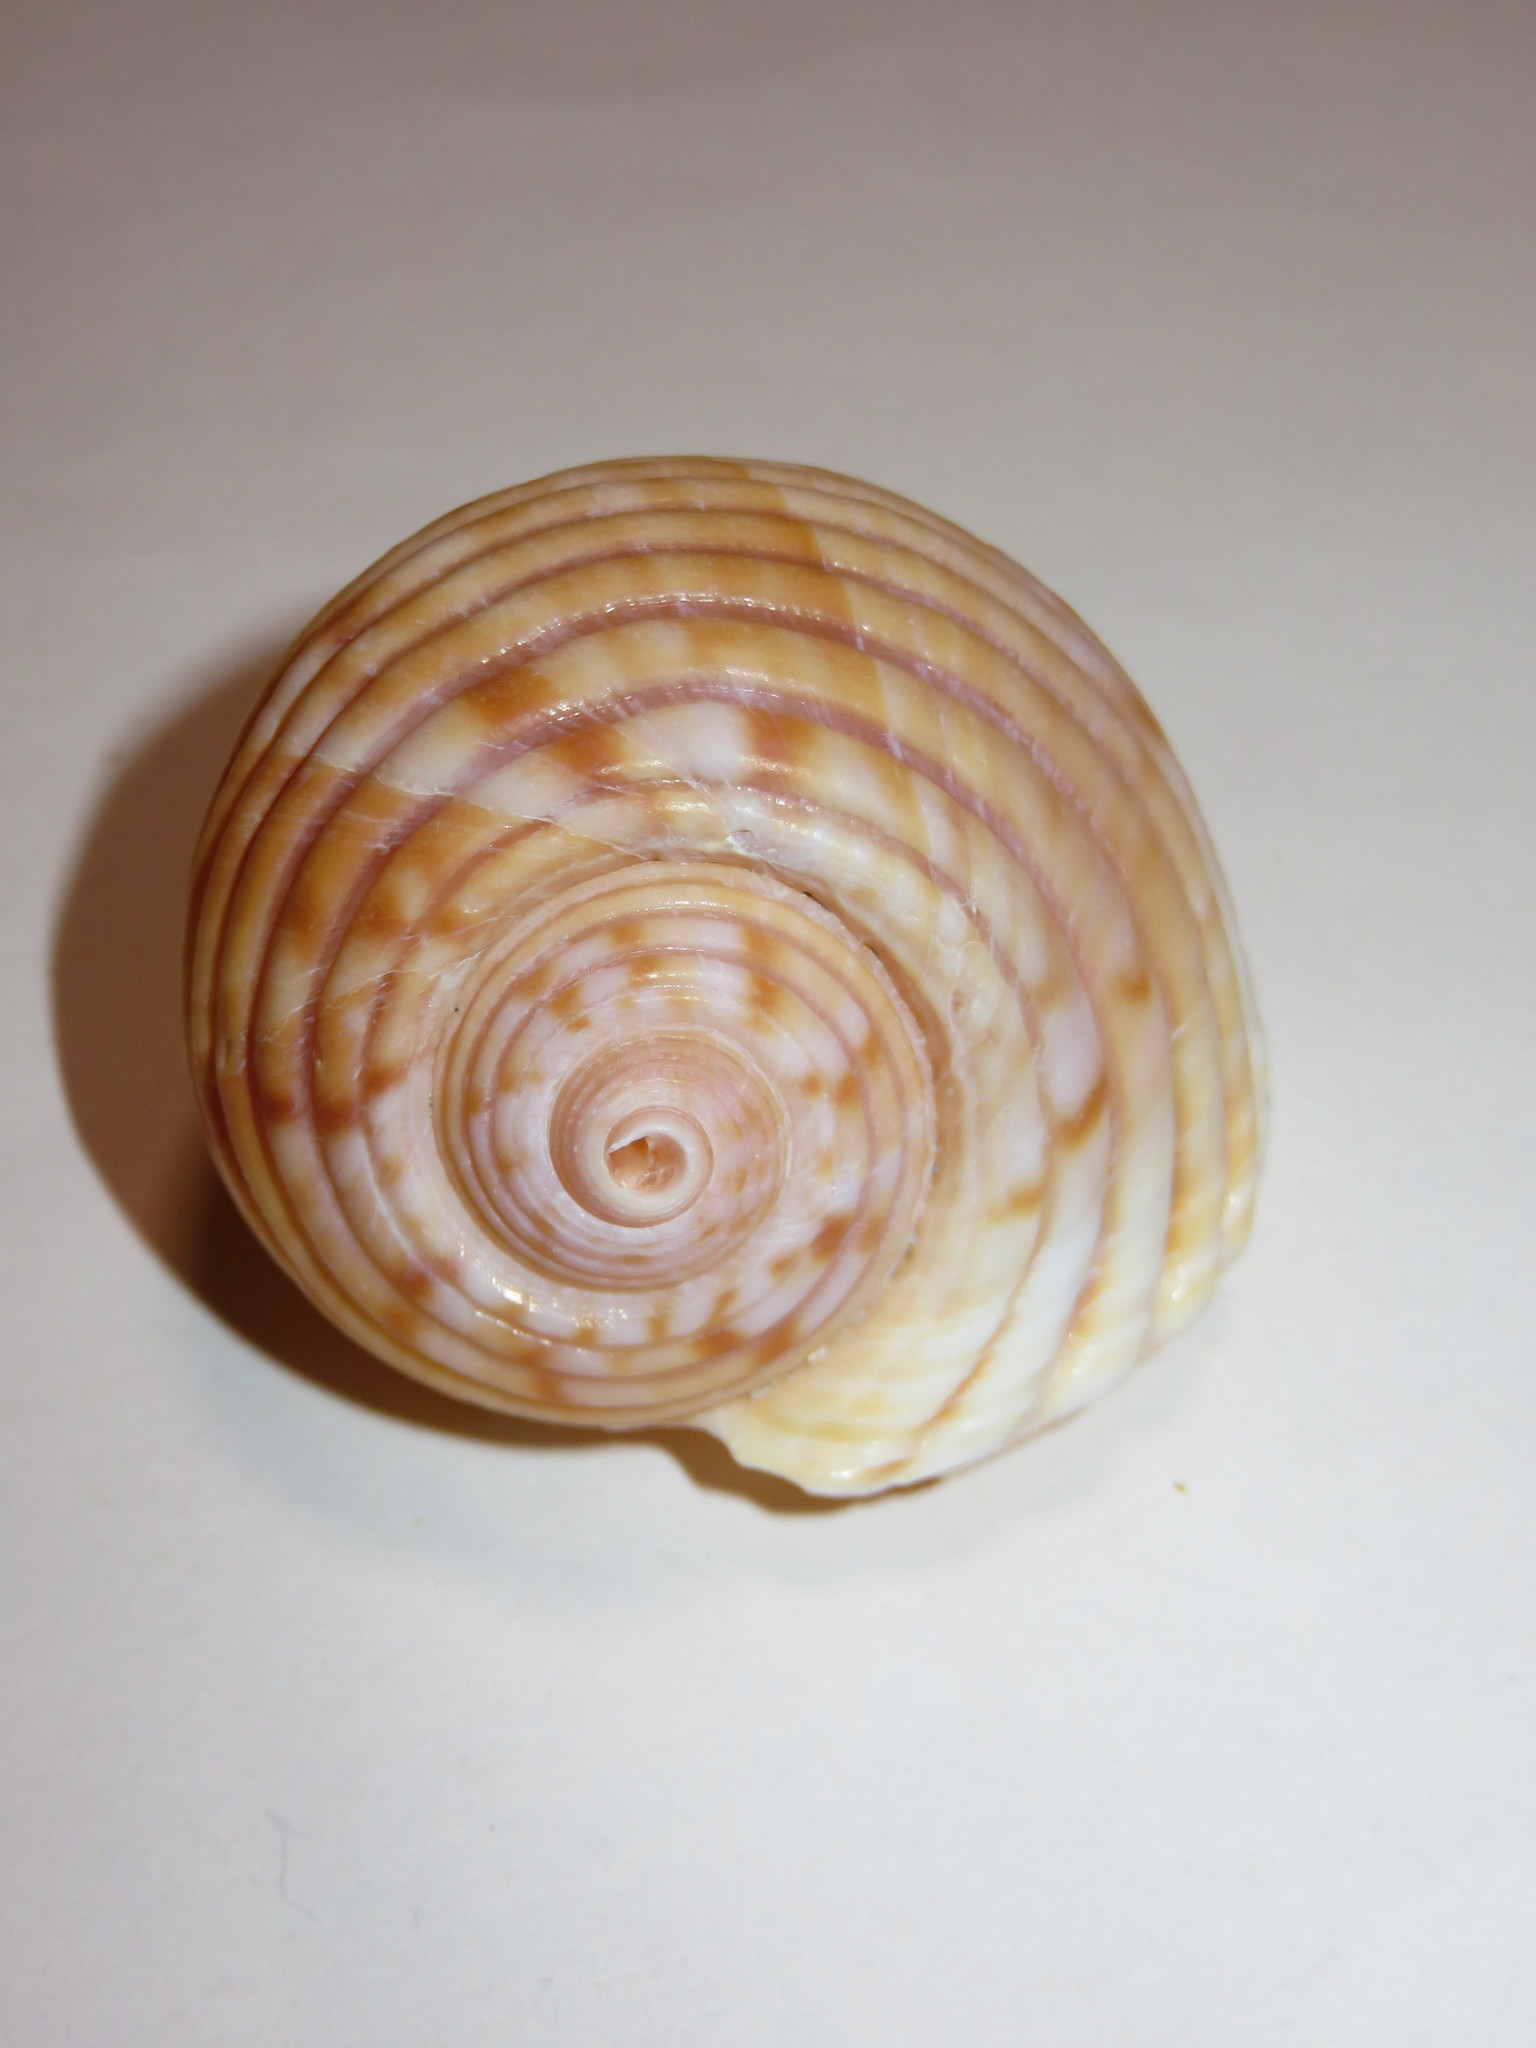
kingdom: Animalia
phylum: Mollusca
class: Gastropoda
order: Littorinimorpha
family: Tonnidae
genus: Tonna
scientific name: Tonna luteostoma
